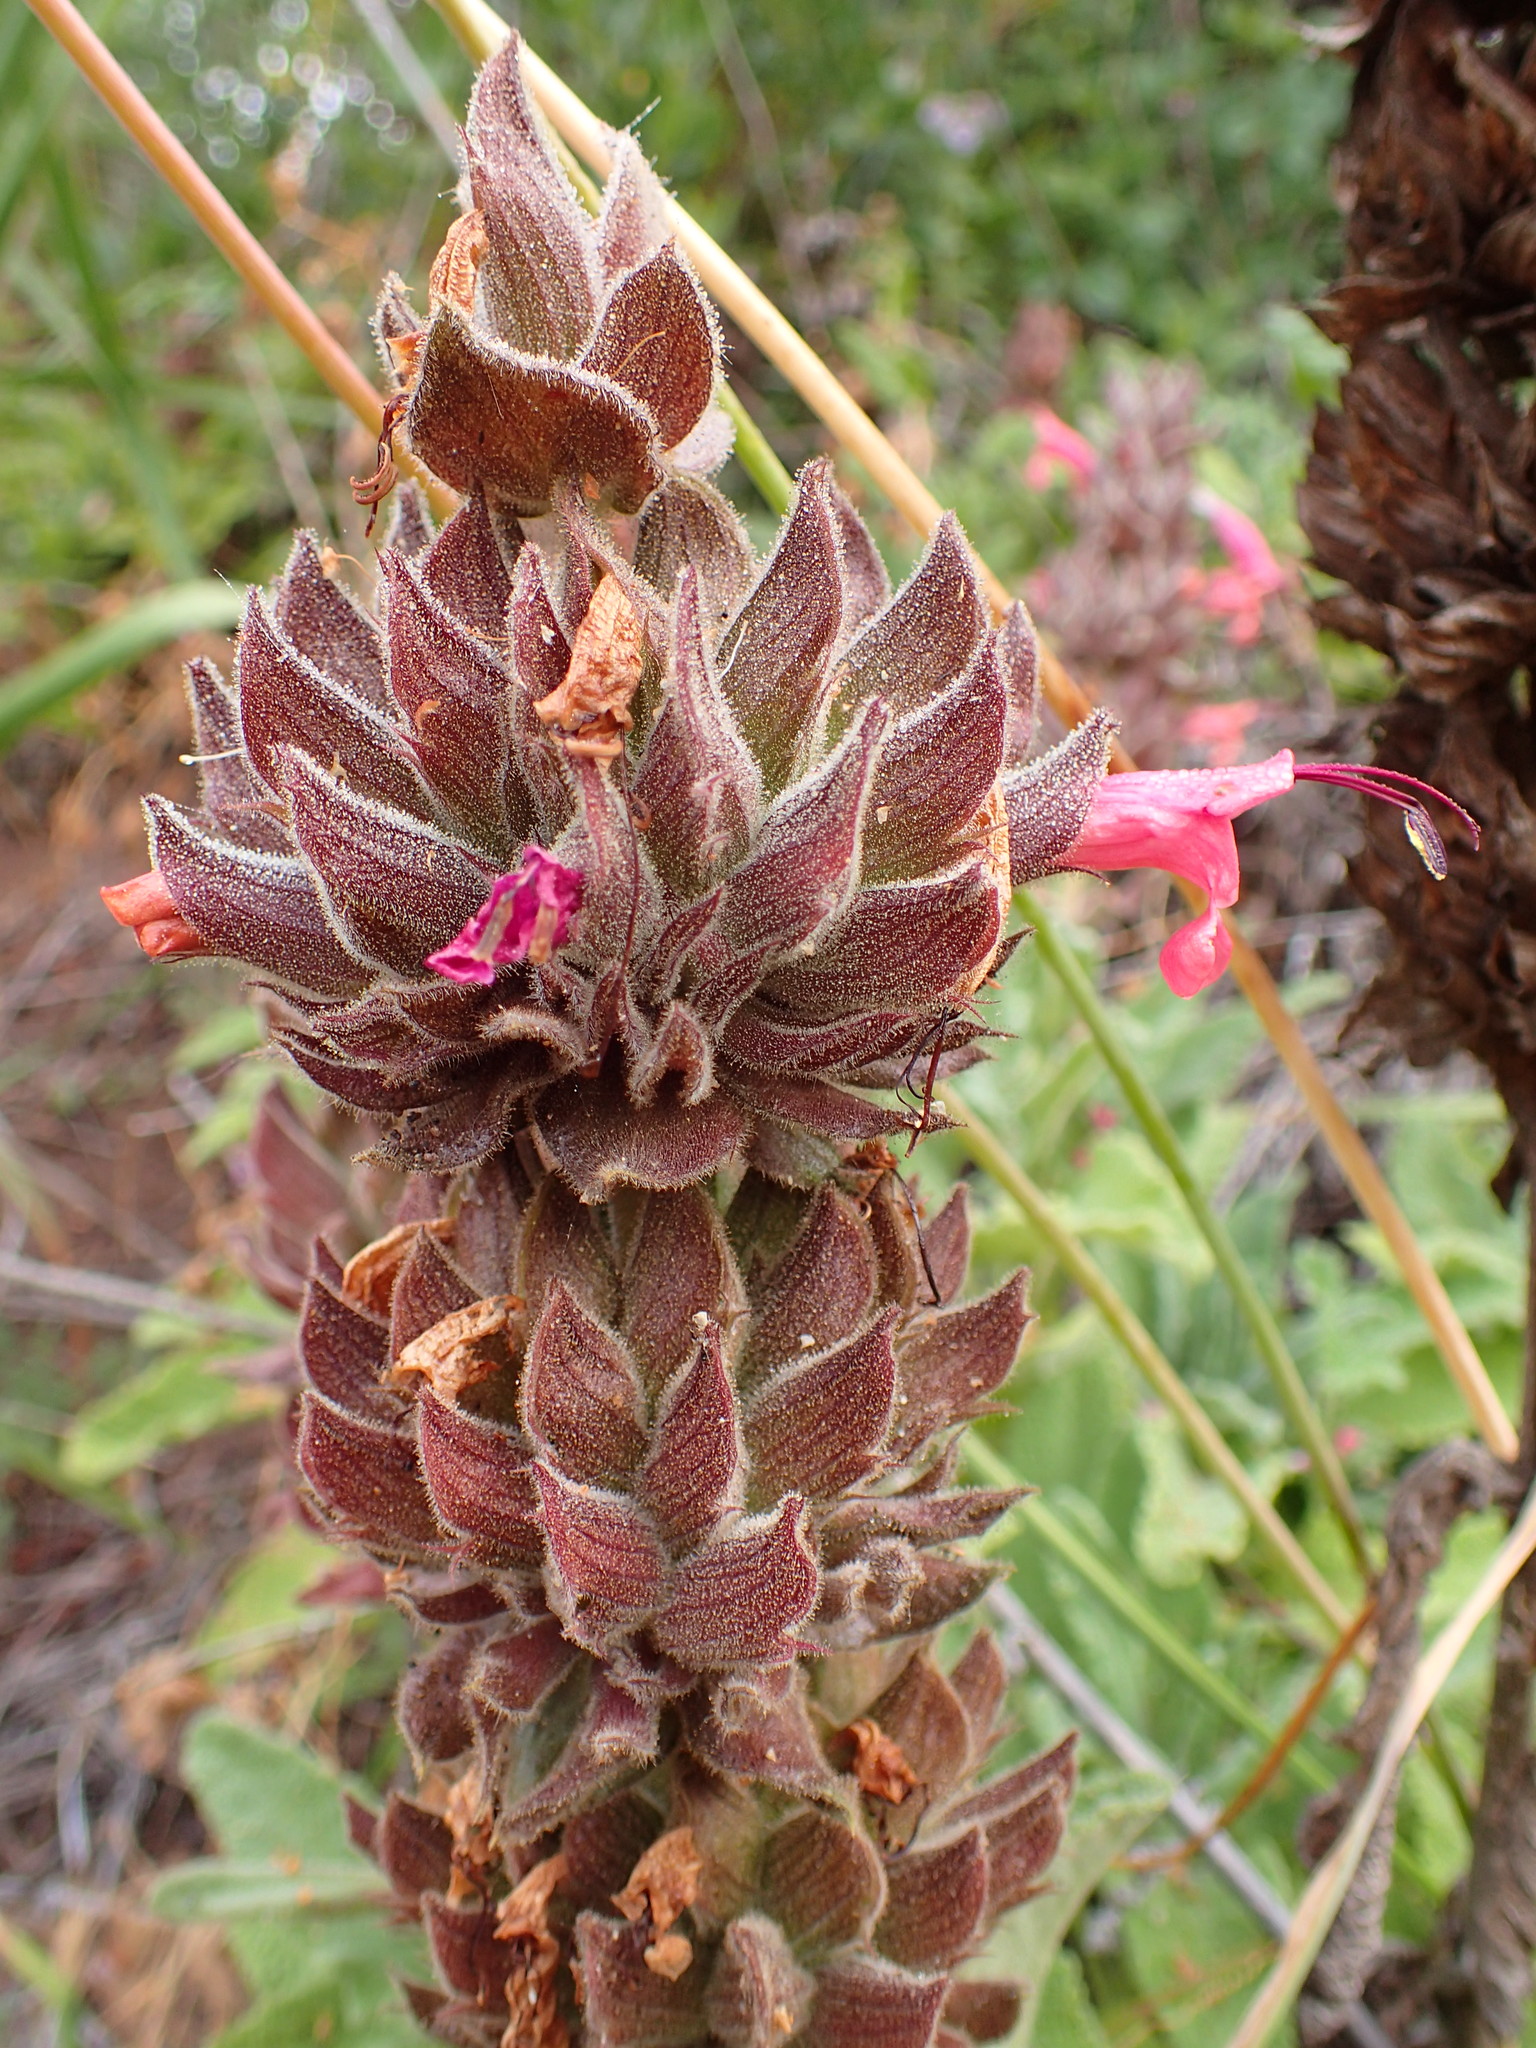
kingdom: Plantae
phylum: Tracheophyta
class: Magnoliopsida
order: Lamiales
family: Lamiaceae
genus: Salvia
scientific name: Salvia spathacea
